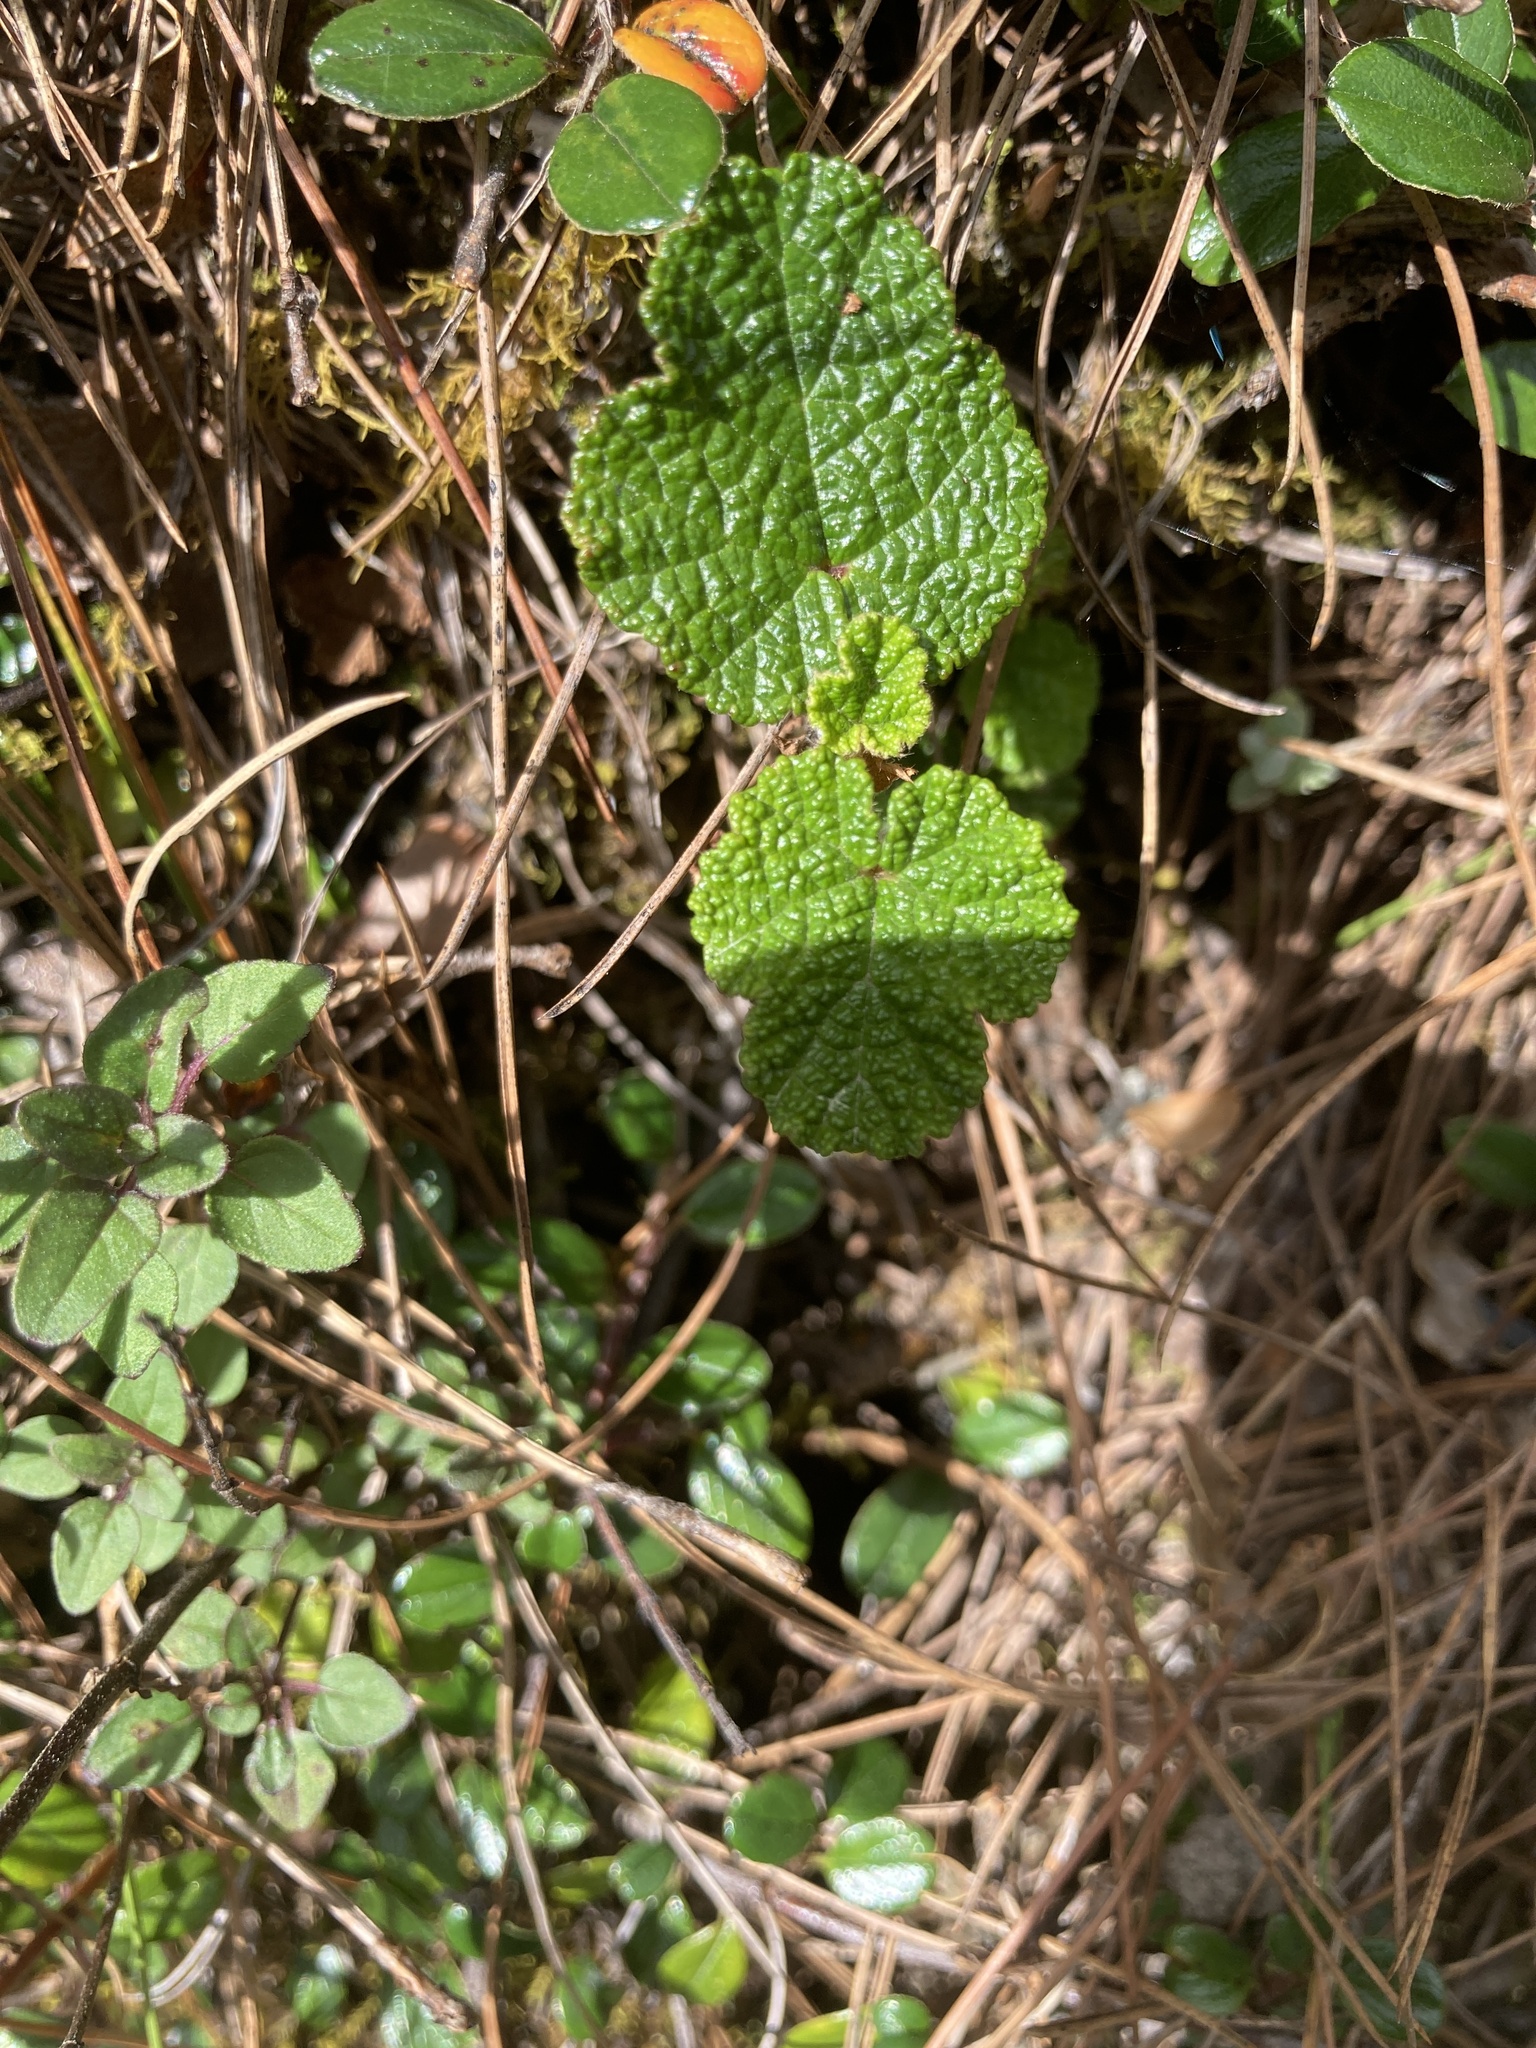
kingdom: Plantae
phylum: Tracheophyta
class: Magnoliopsida
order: Rosales
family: Rosaceae
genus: Rubus
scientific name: Rubus rolfei
